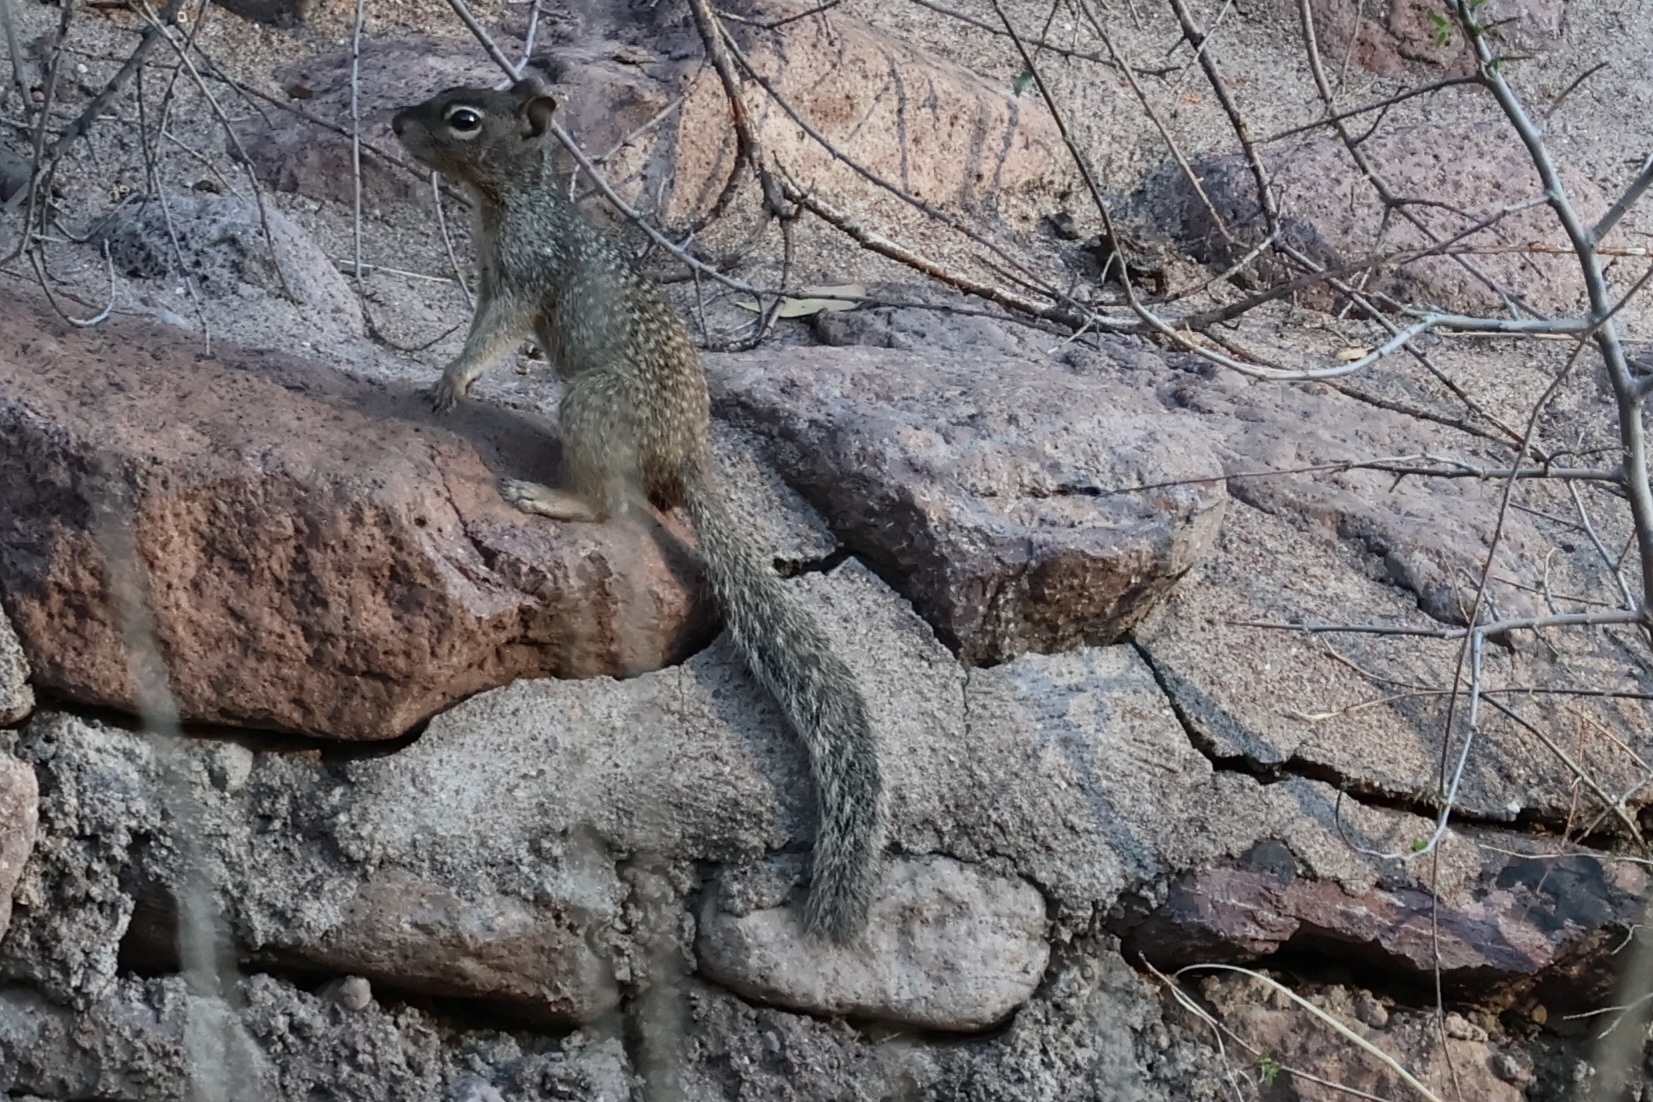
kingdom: Animalia
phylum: Chordata
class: Mammalia
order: Rodentia
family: Sciuridae
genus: Otospermophilus
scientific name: Otospermophilus variegatus
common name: Rock squirrel
